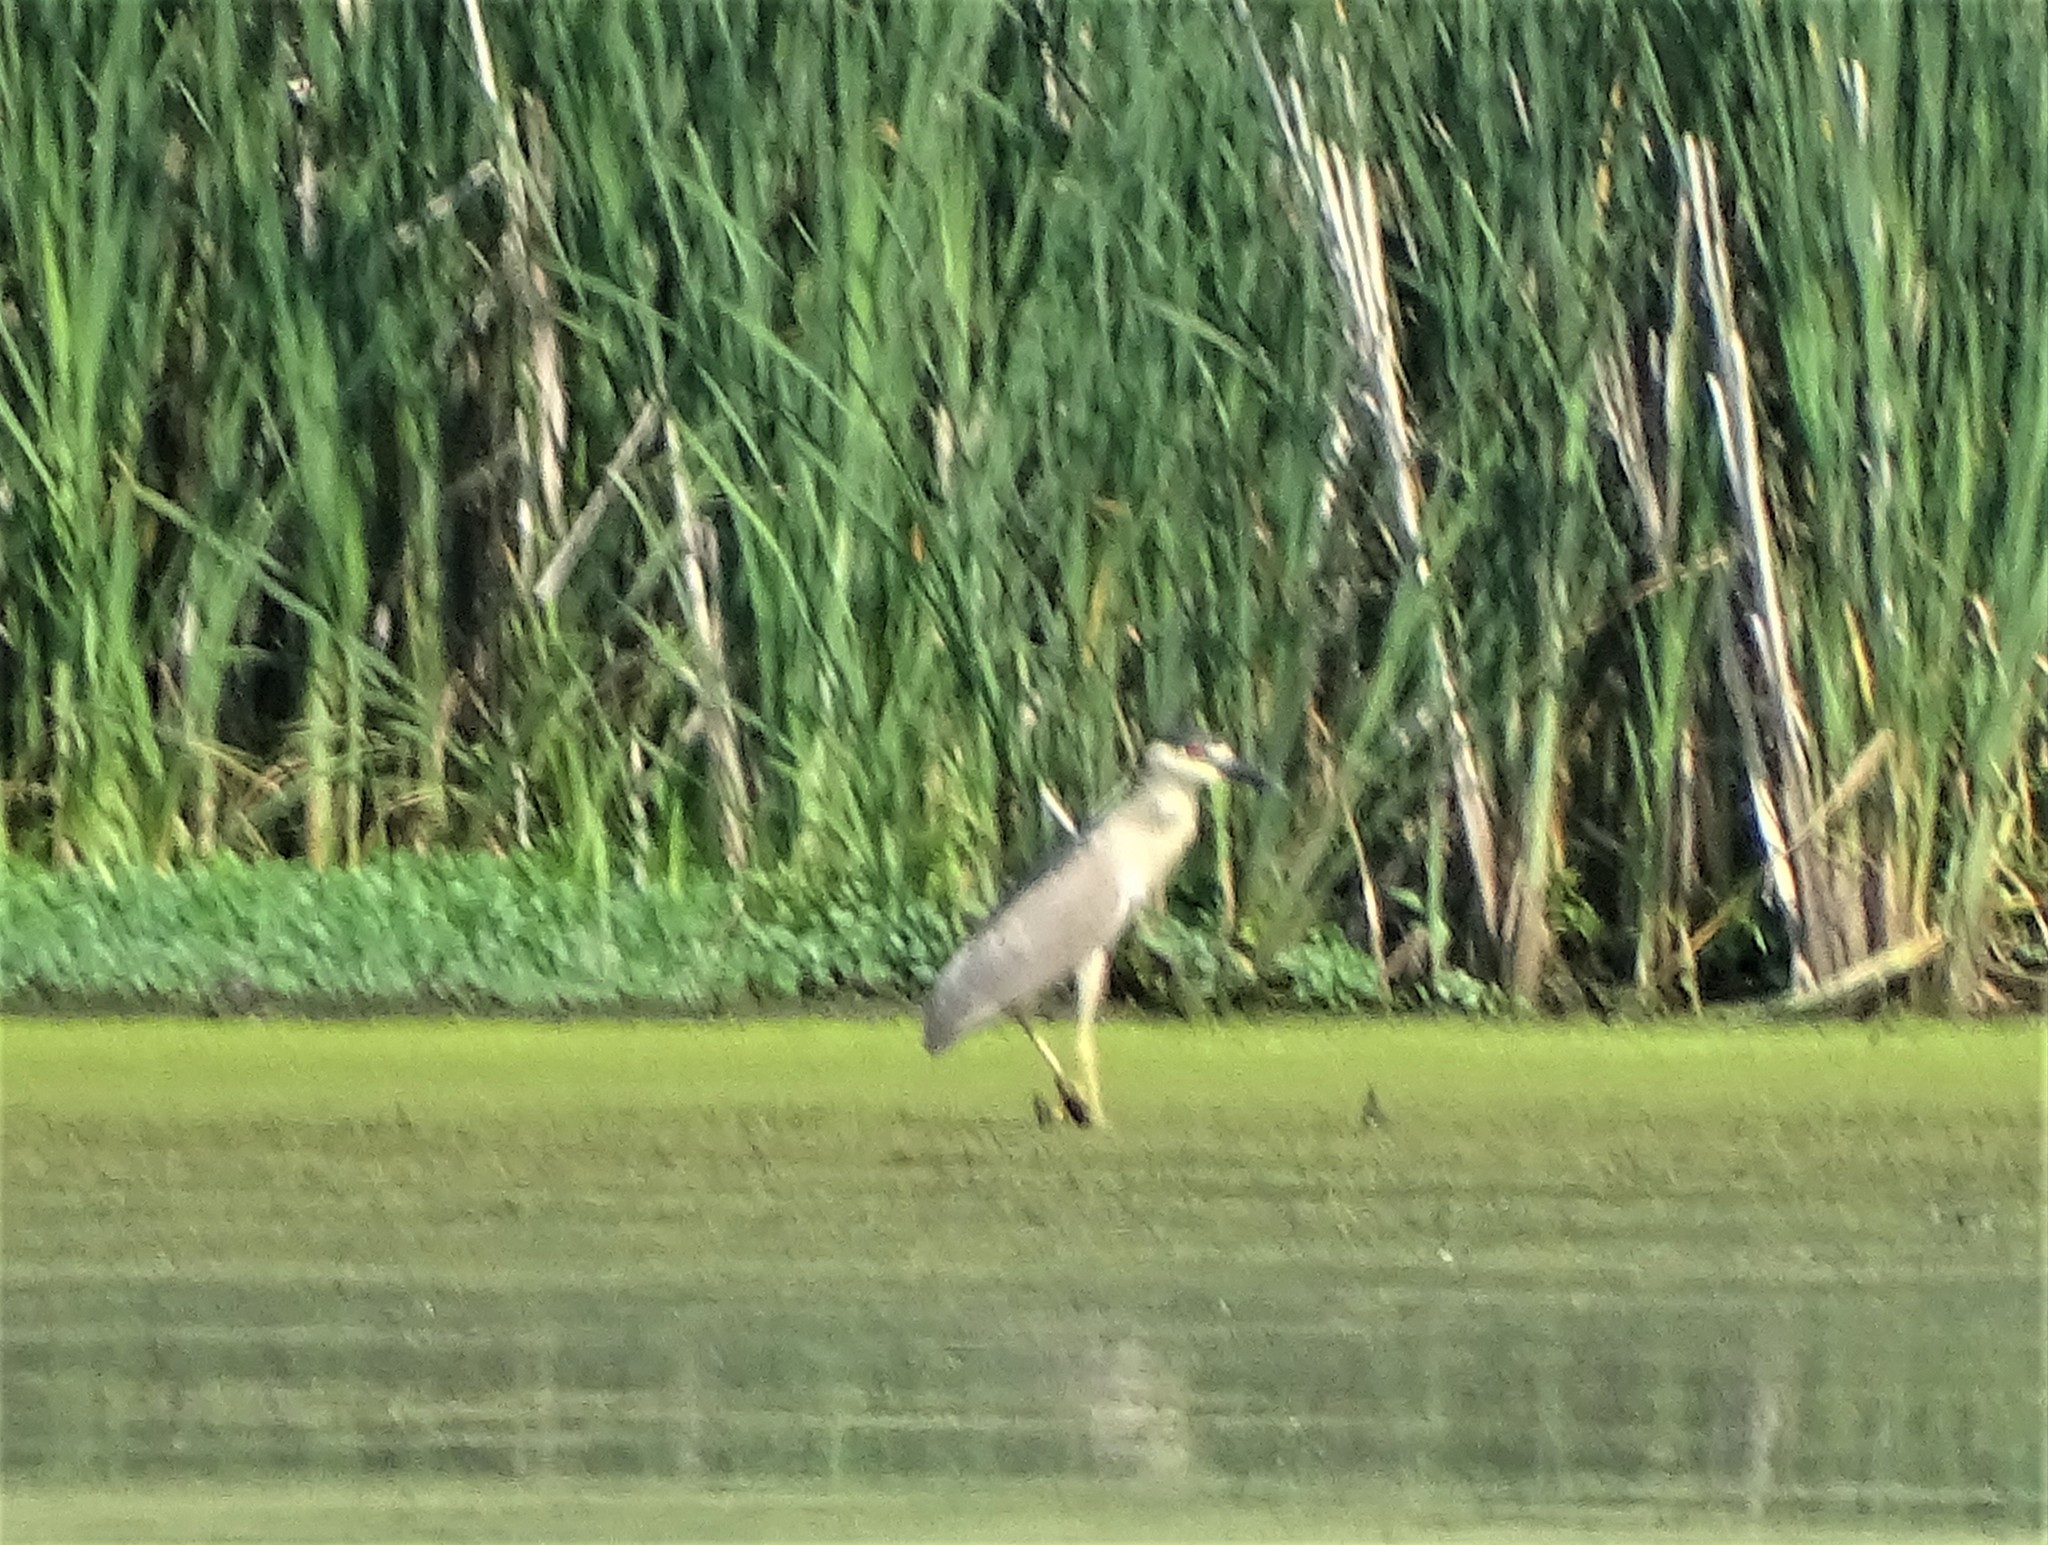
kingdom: Animalia
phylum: Chordata
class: Aves
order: Pelecaniformes
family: Ardeidae
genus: Nycticorax
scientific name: Nycticorax nycticorax
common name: Black-crowned night heron
